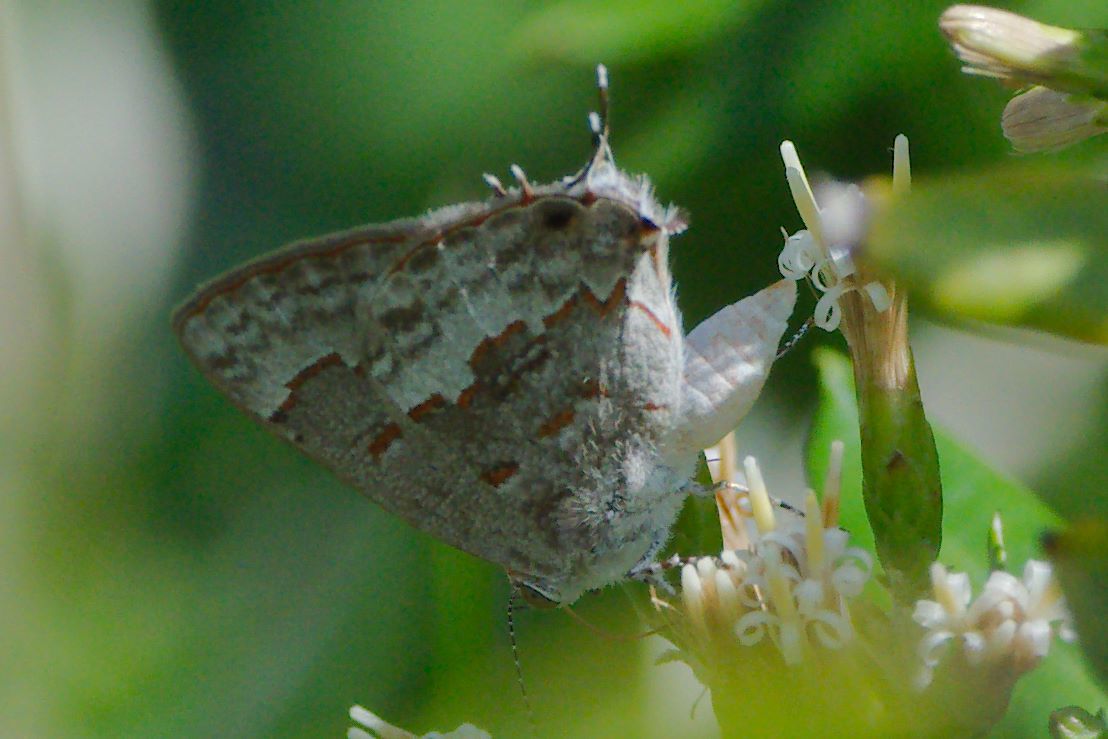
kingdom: Animalia
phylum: Arthropoda
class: Insecta
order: Lepidoptera
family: Lycaenidae
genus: Ministrymon
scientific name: Ministrymon clytie
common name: Clytie ministreak
